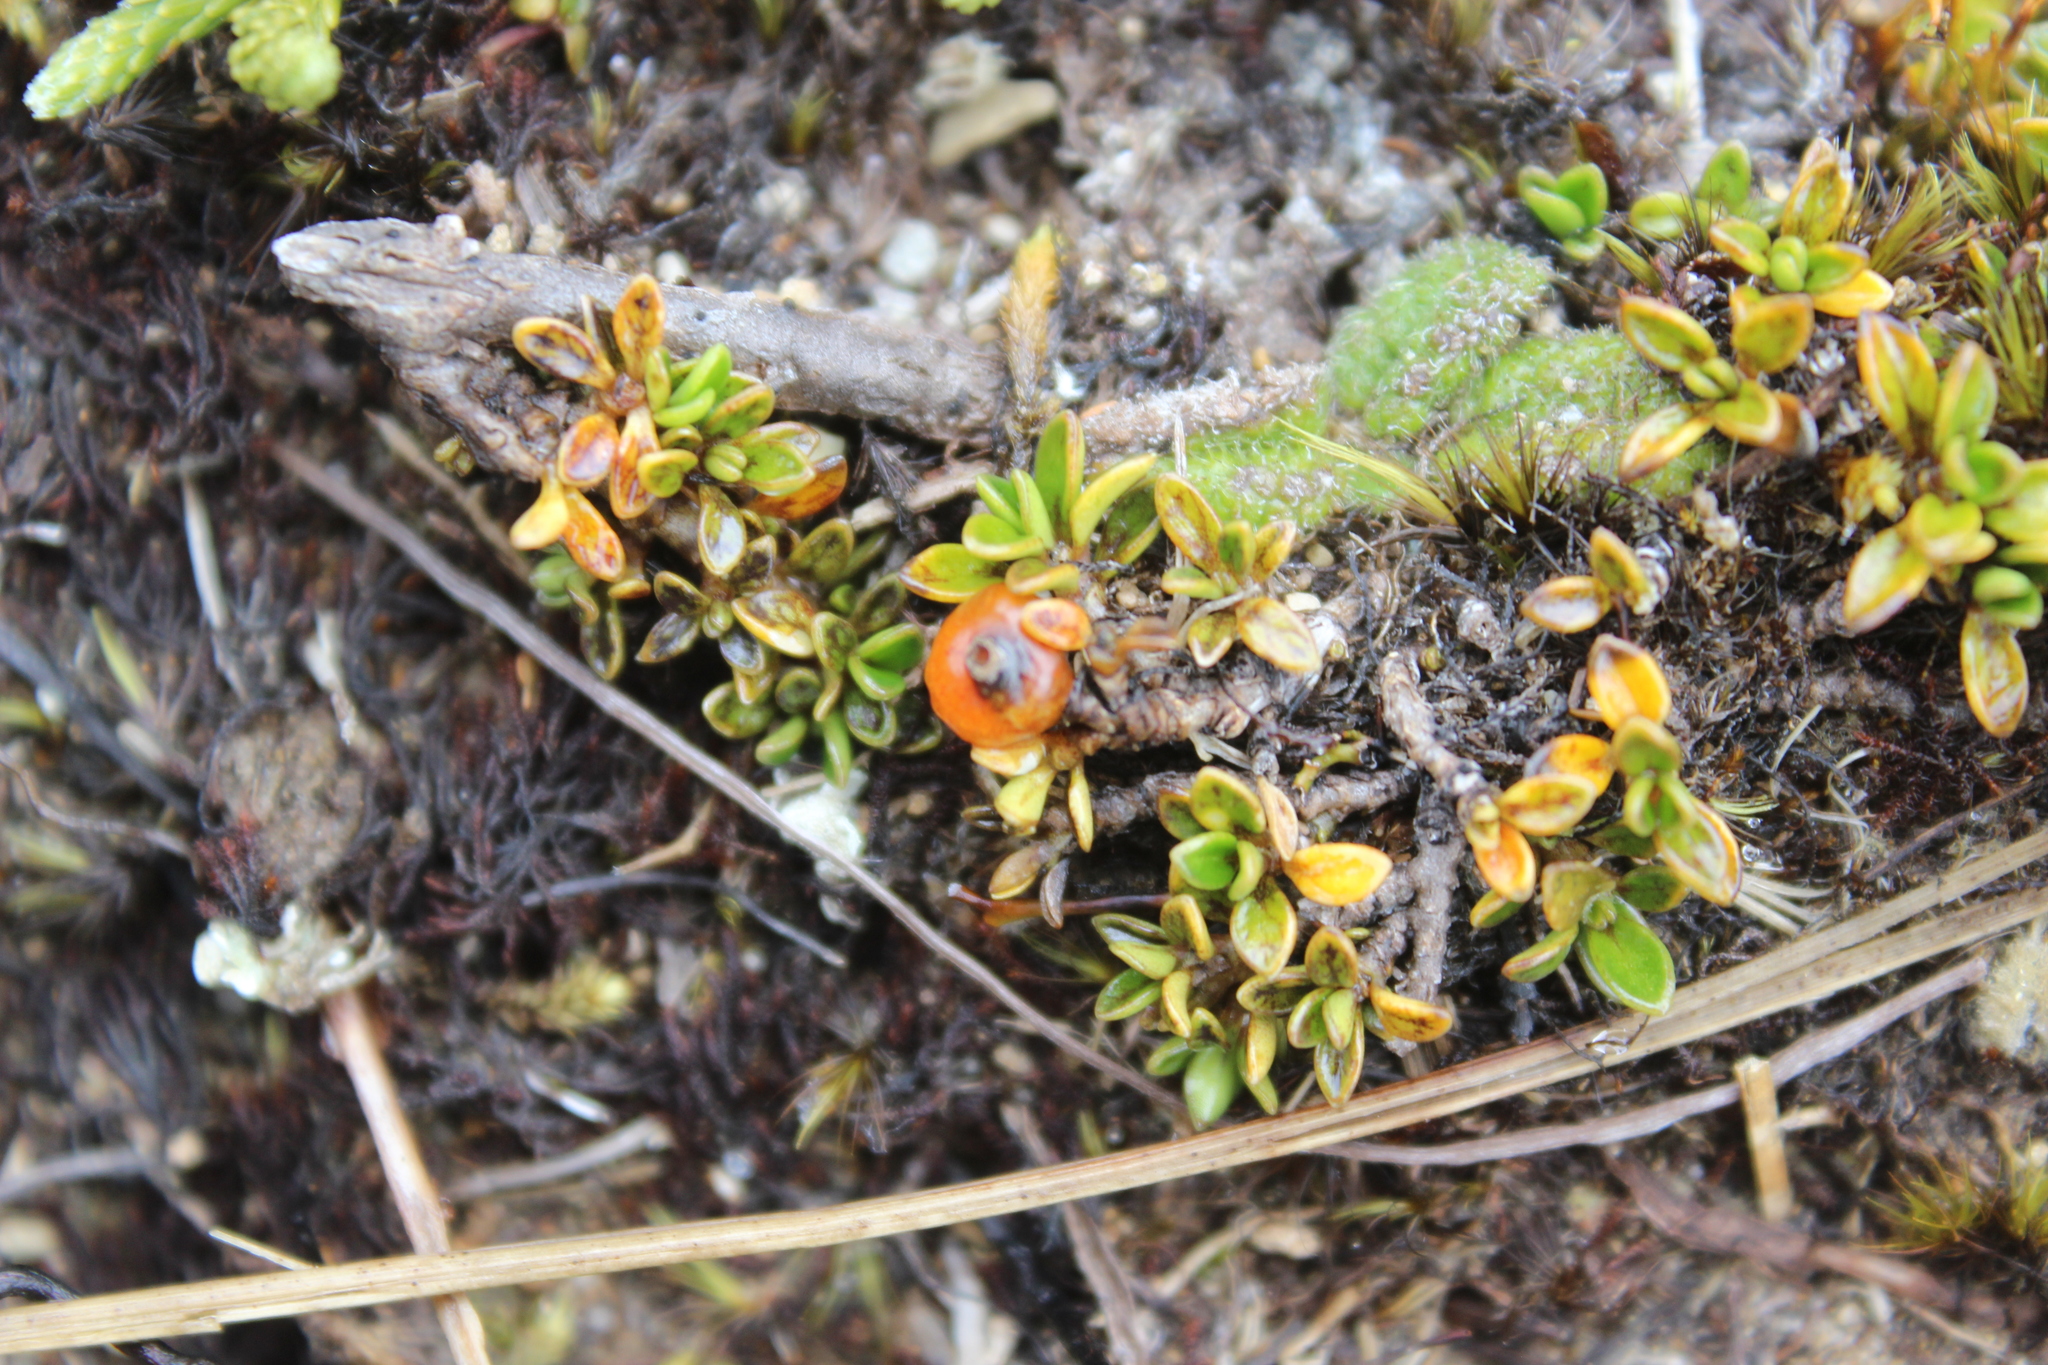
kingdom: Plantae
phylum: Tracheophyta
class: Magnoliopsida
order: Gentianales
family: Rubiaceae
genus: Coprosma
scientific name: Coprosma perpusilla
